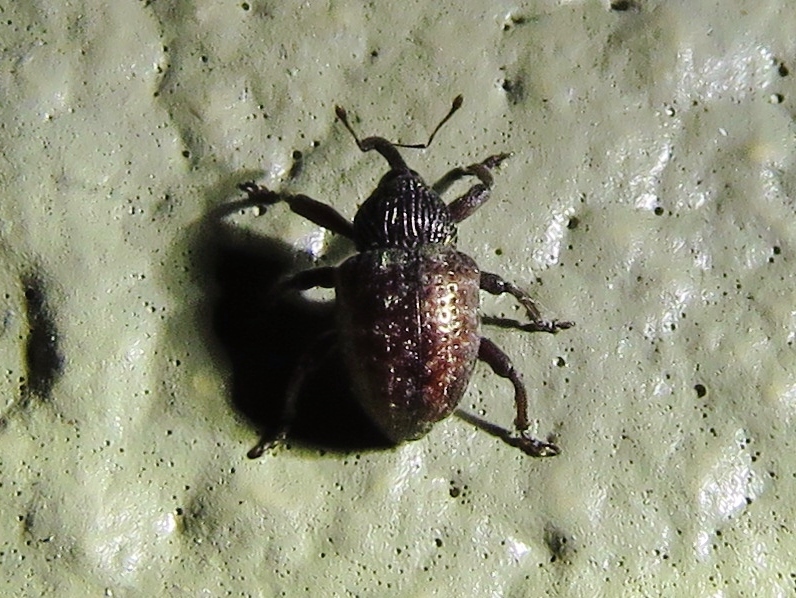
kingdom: Animalia
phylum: Arthropoda
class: Insecta
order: Coleoptera
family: Curculionidae
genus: Chalcodermus
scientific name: Chalcodermus collaris
